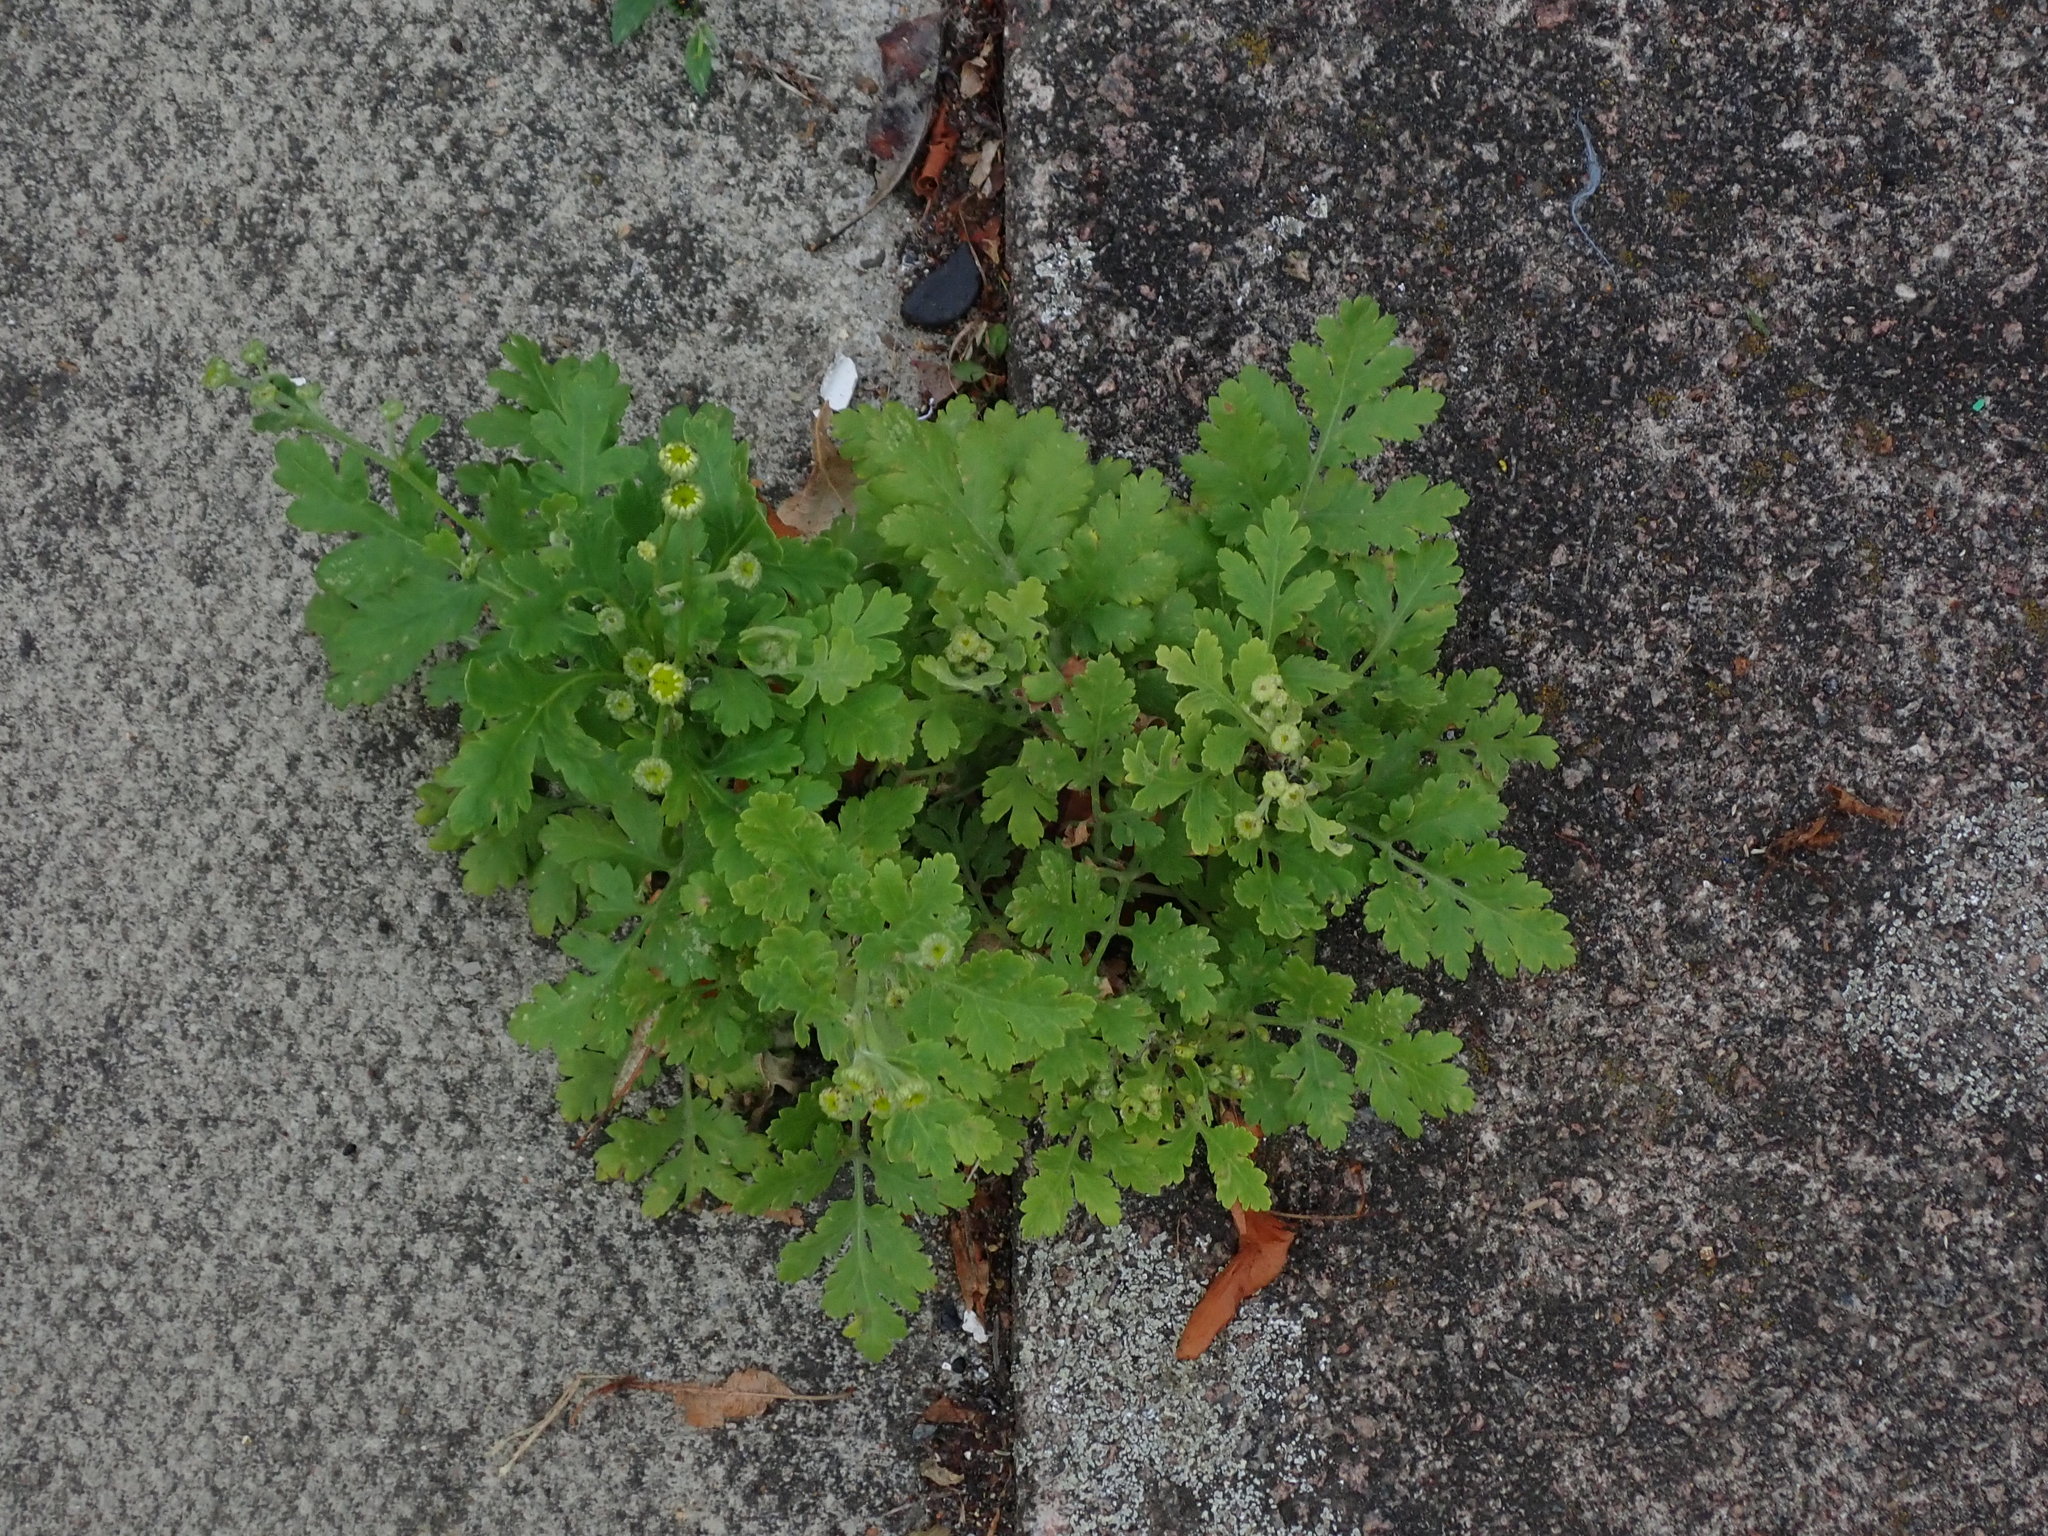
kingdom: Plantae
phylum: Tracheophyta
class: Magnoliopsida
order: Asterales
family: Asteraceae
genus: Tanacetum
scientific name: Tanacetum parthenium
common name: Feverfew
